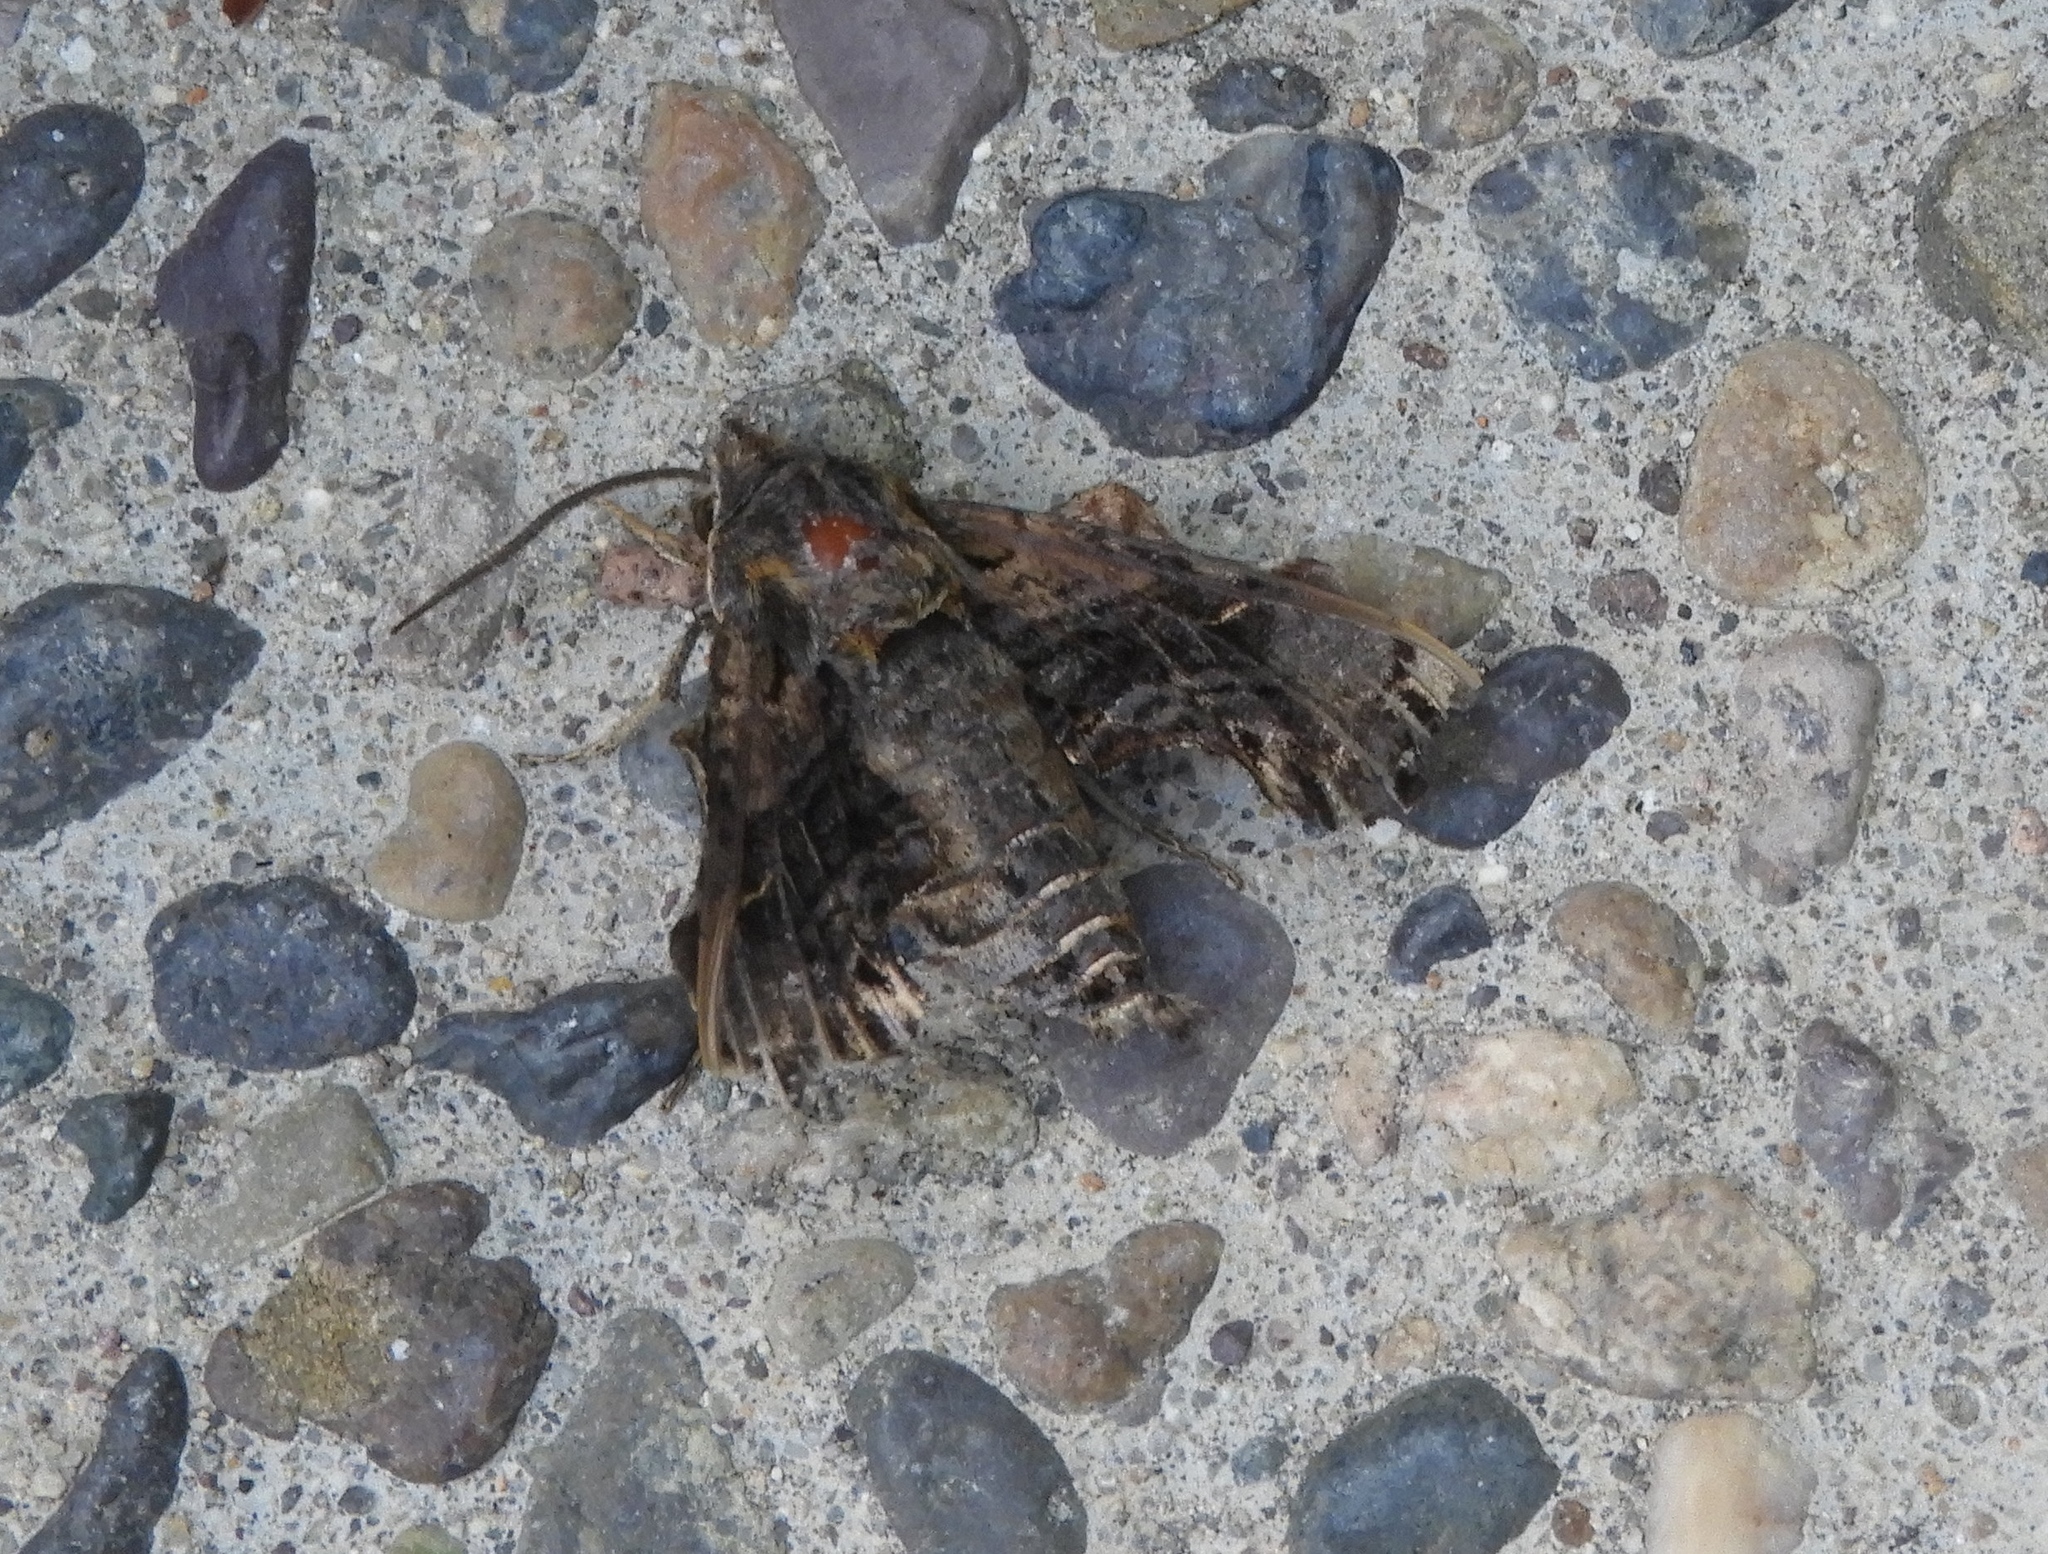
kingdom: Animalia
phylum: Arthropoda
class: Insecta
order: Lepidoptera
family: Sphingidae
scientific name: Sphingidae
